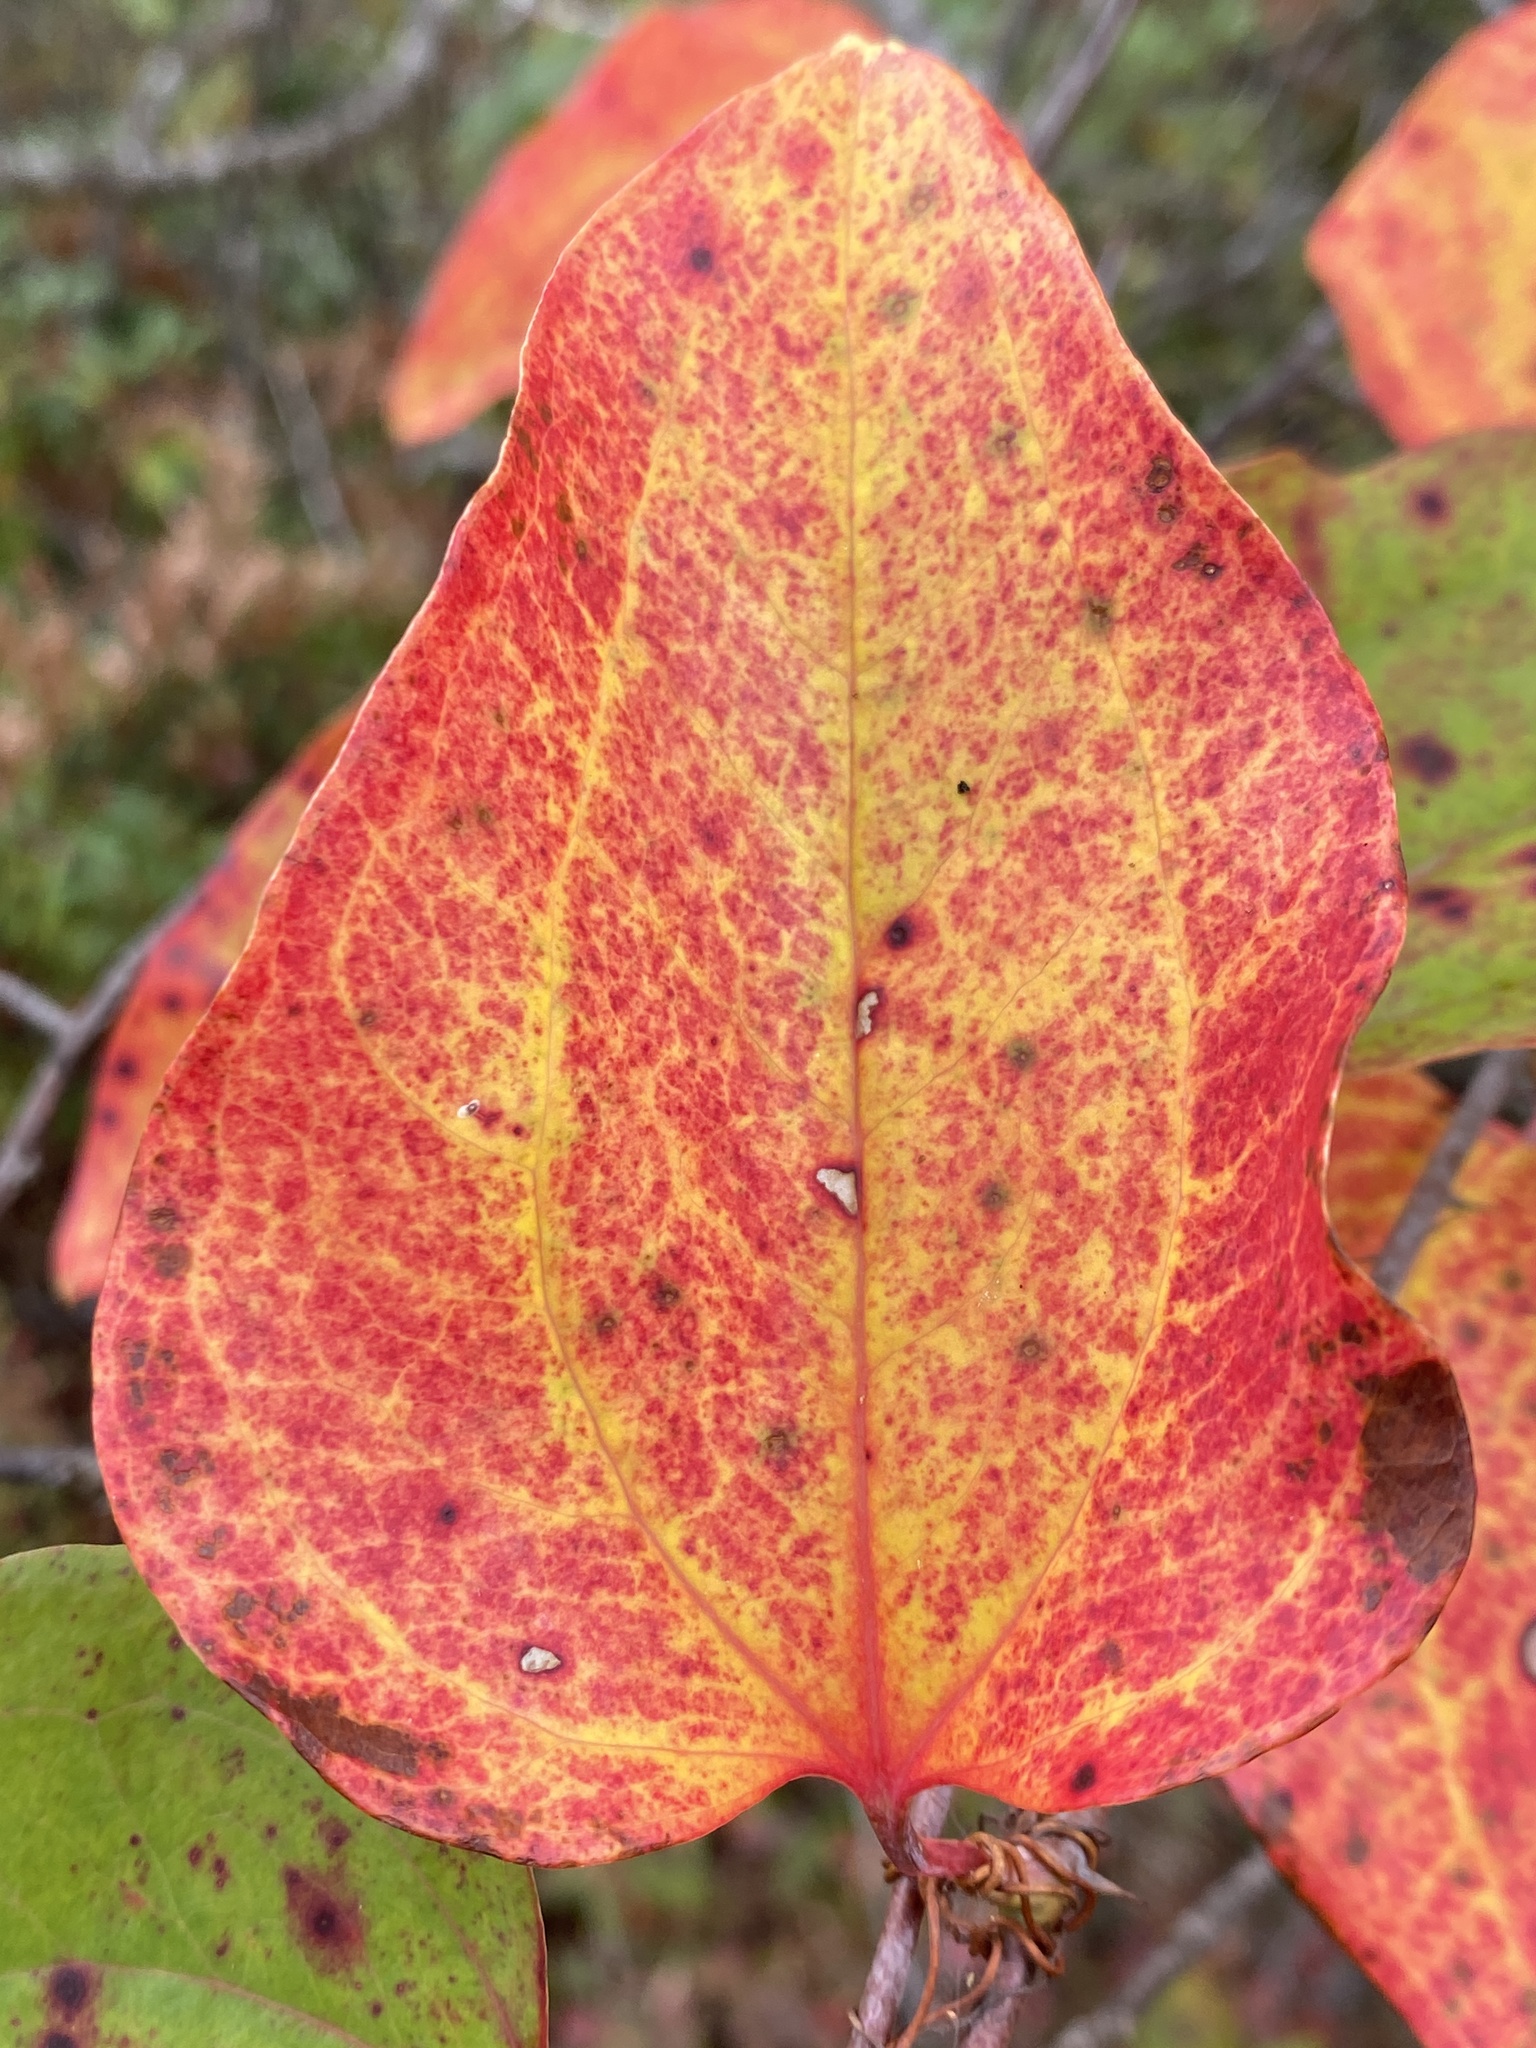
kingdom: Plantae
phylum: Tracheophyta
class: Liliopsida
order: Liliales
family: Smilacaceae
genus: Smilax
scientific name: Smilax glauca
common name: Cat greenbrier
